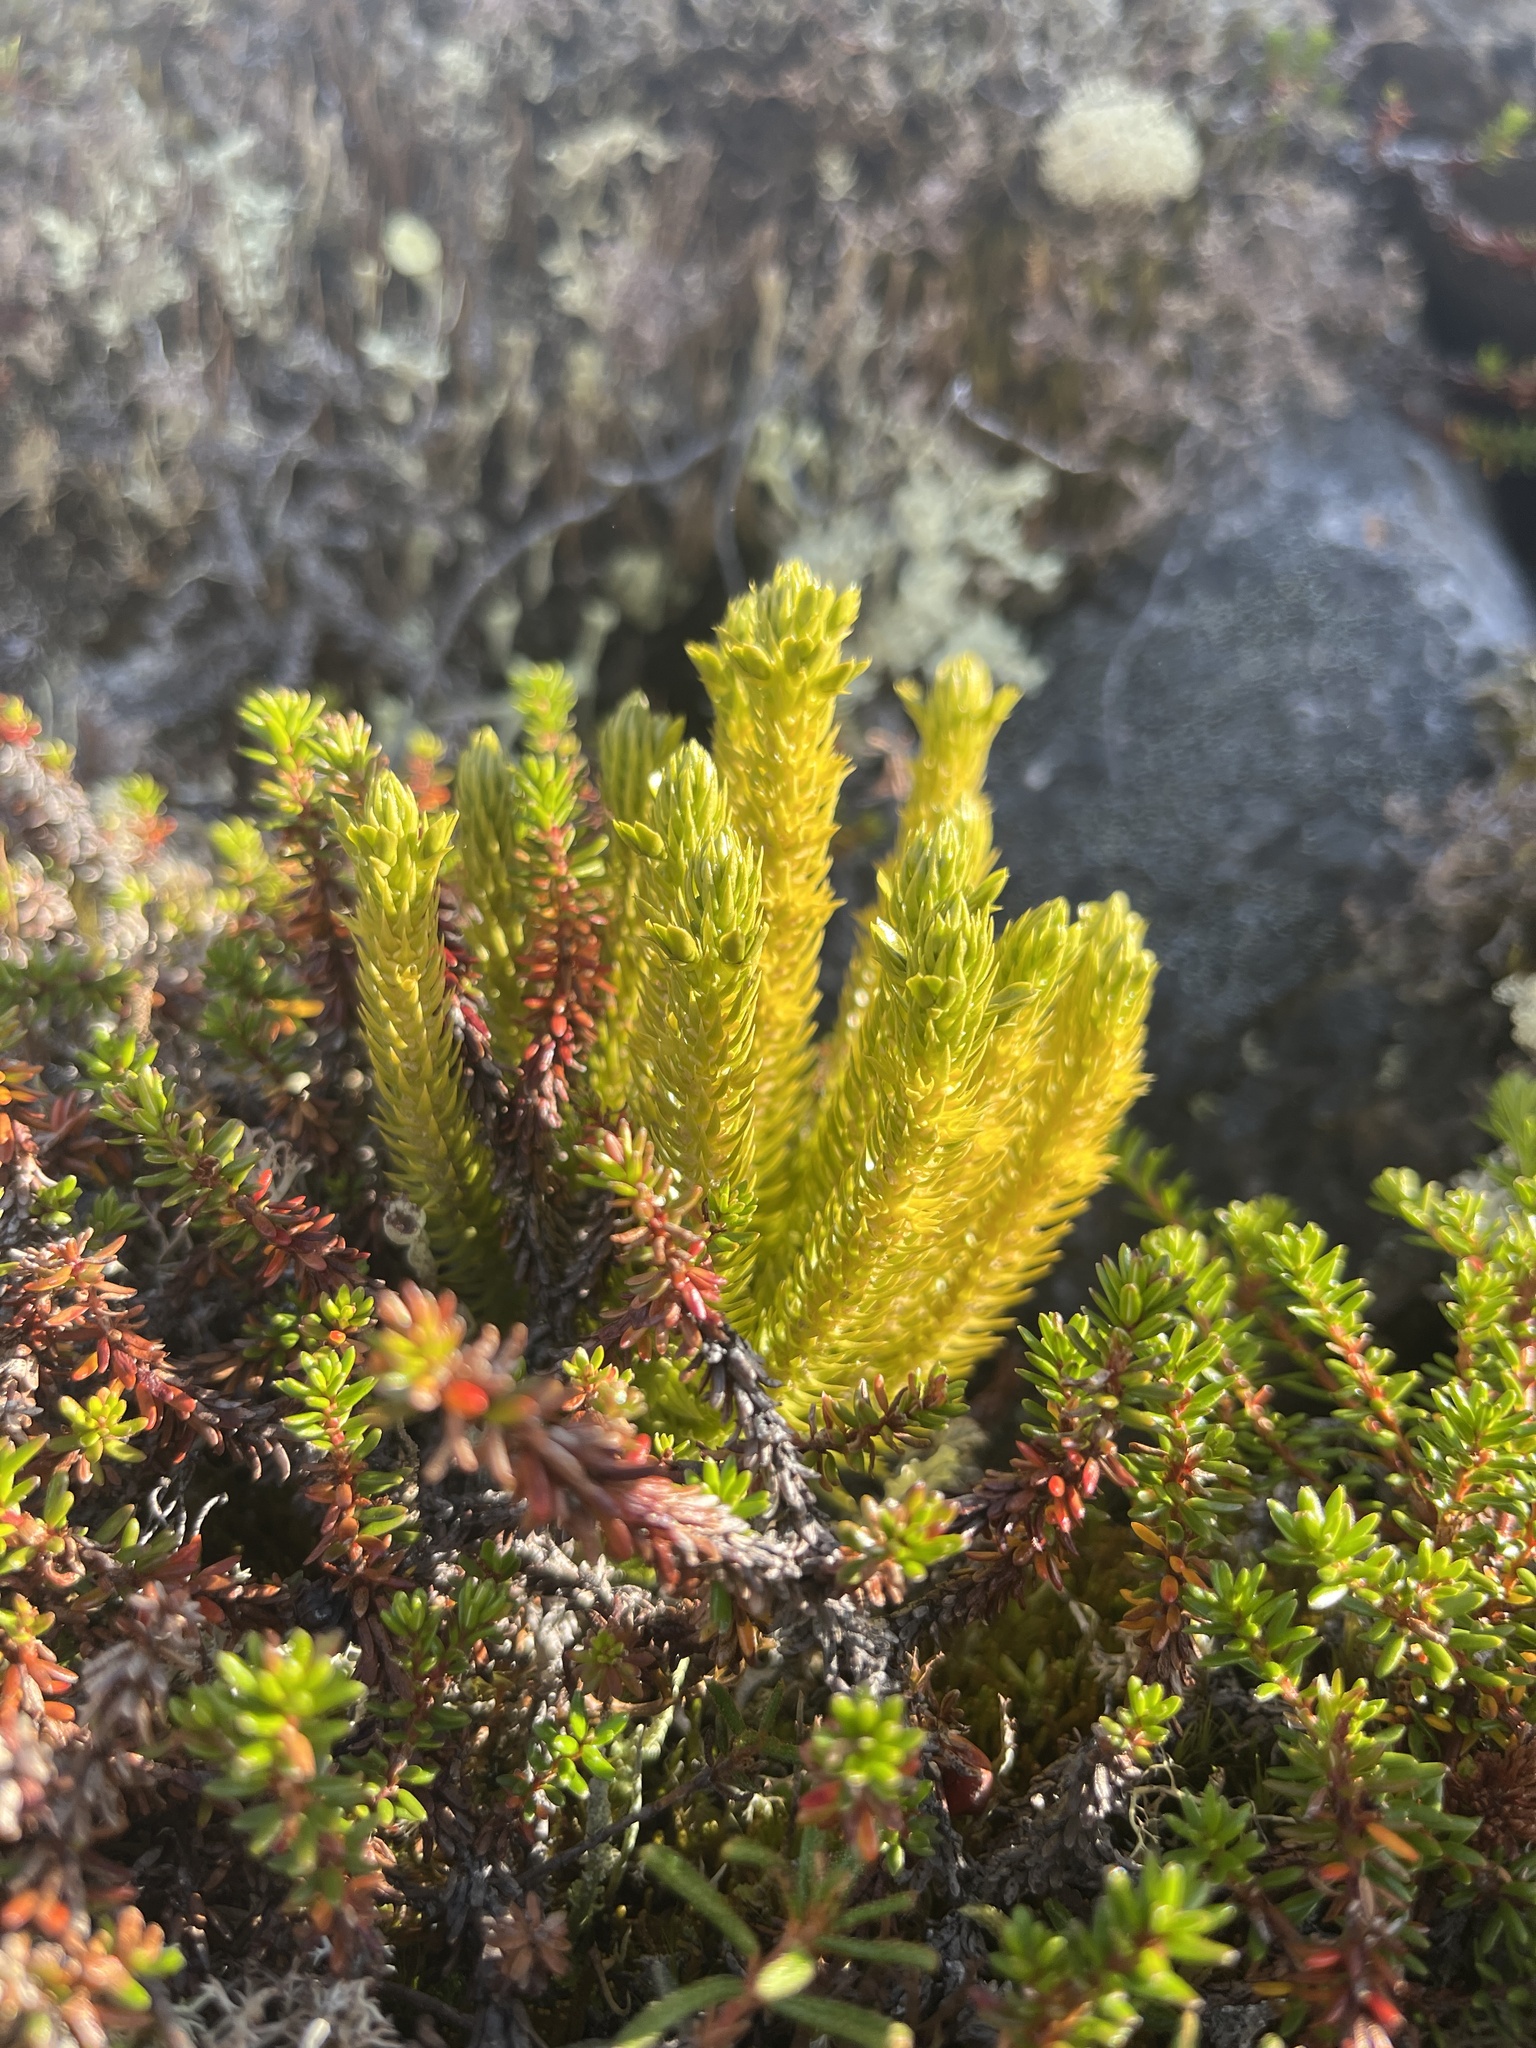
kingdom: Plantae
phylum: Tracheophyta
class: Lycopodiopsida
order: Lycopodiales
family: Lycopodiaceae
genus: Huperzia
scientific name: Huperzia selago
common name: Northern firmoss
